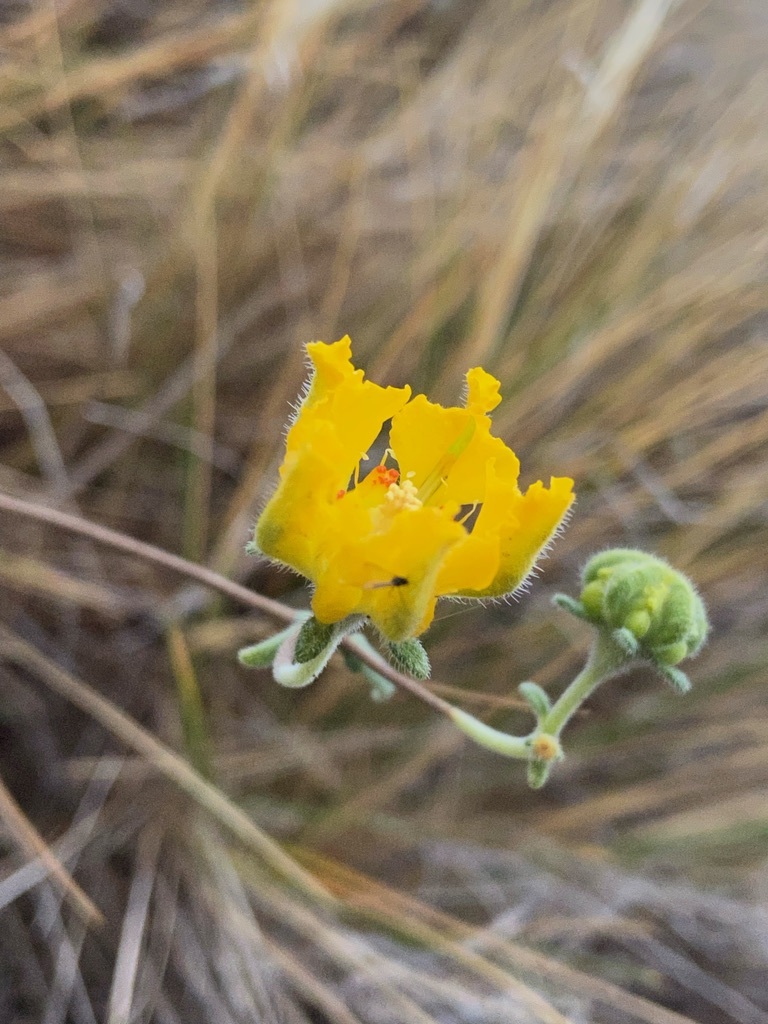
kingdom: Plantae
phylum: Tracheophyta
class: Magnoliopsida
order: Cornales
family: Loasaceae
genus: Pinnasa
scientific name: Pinnasa bergii
